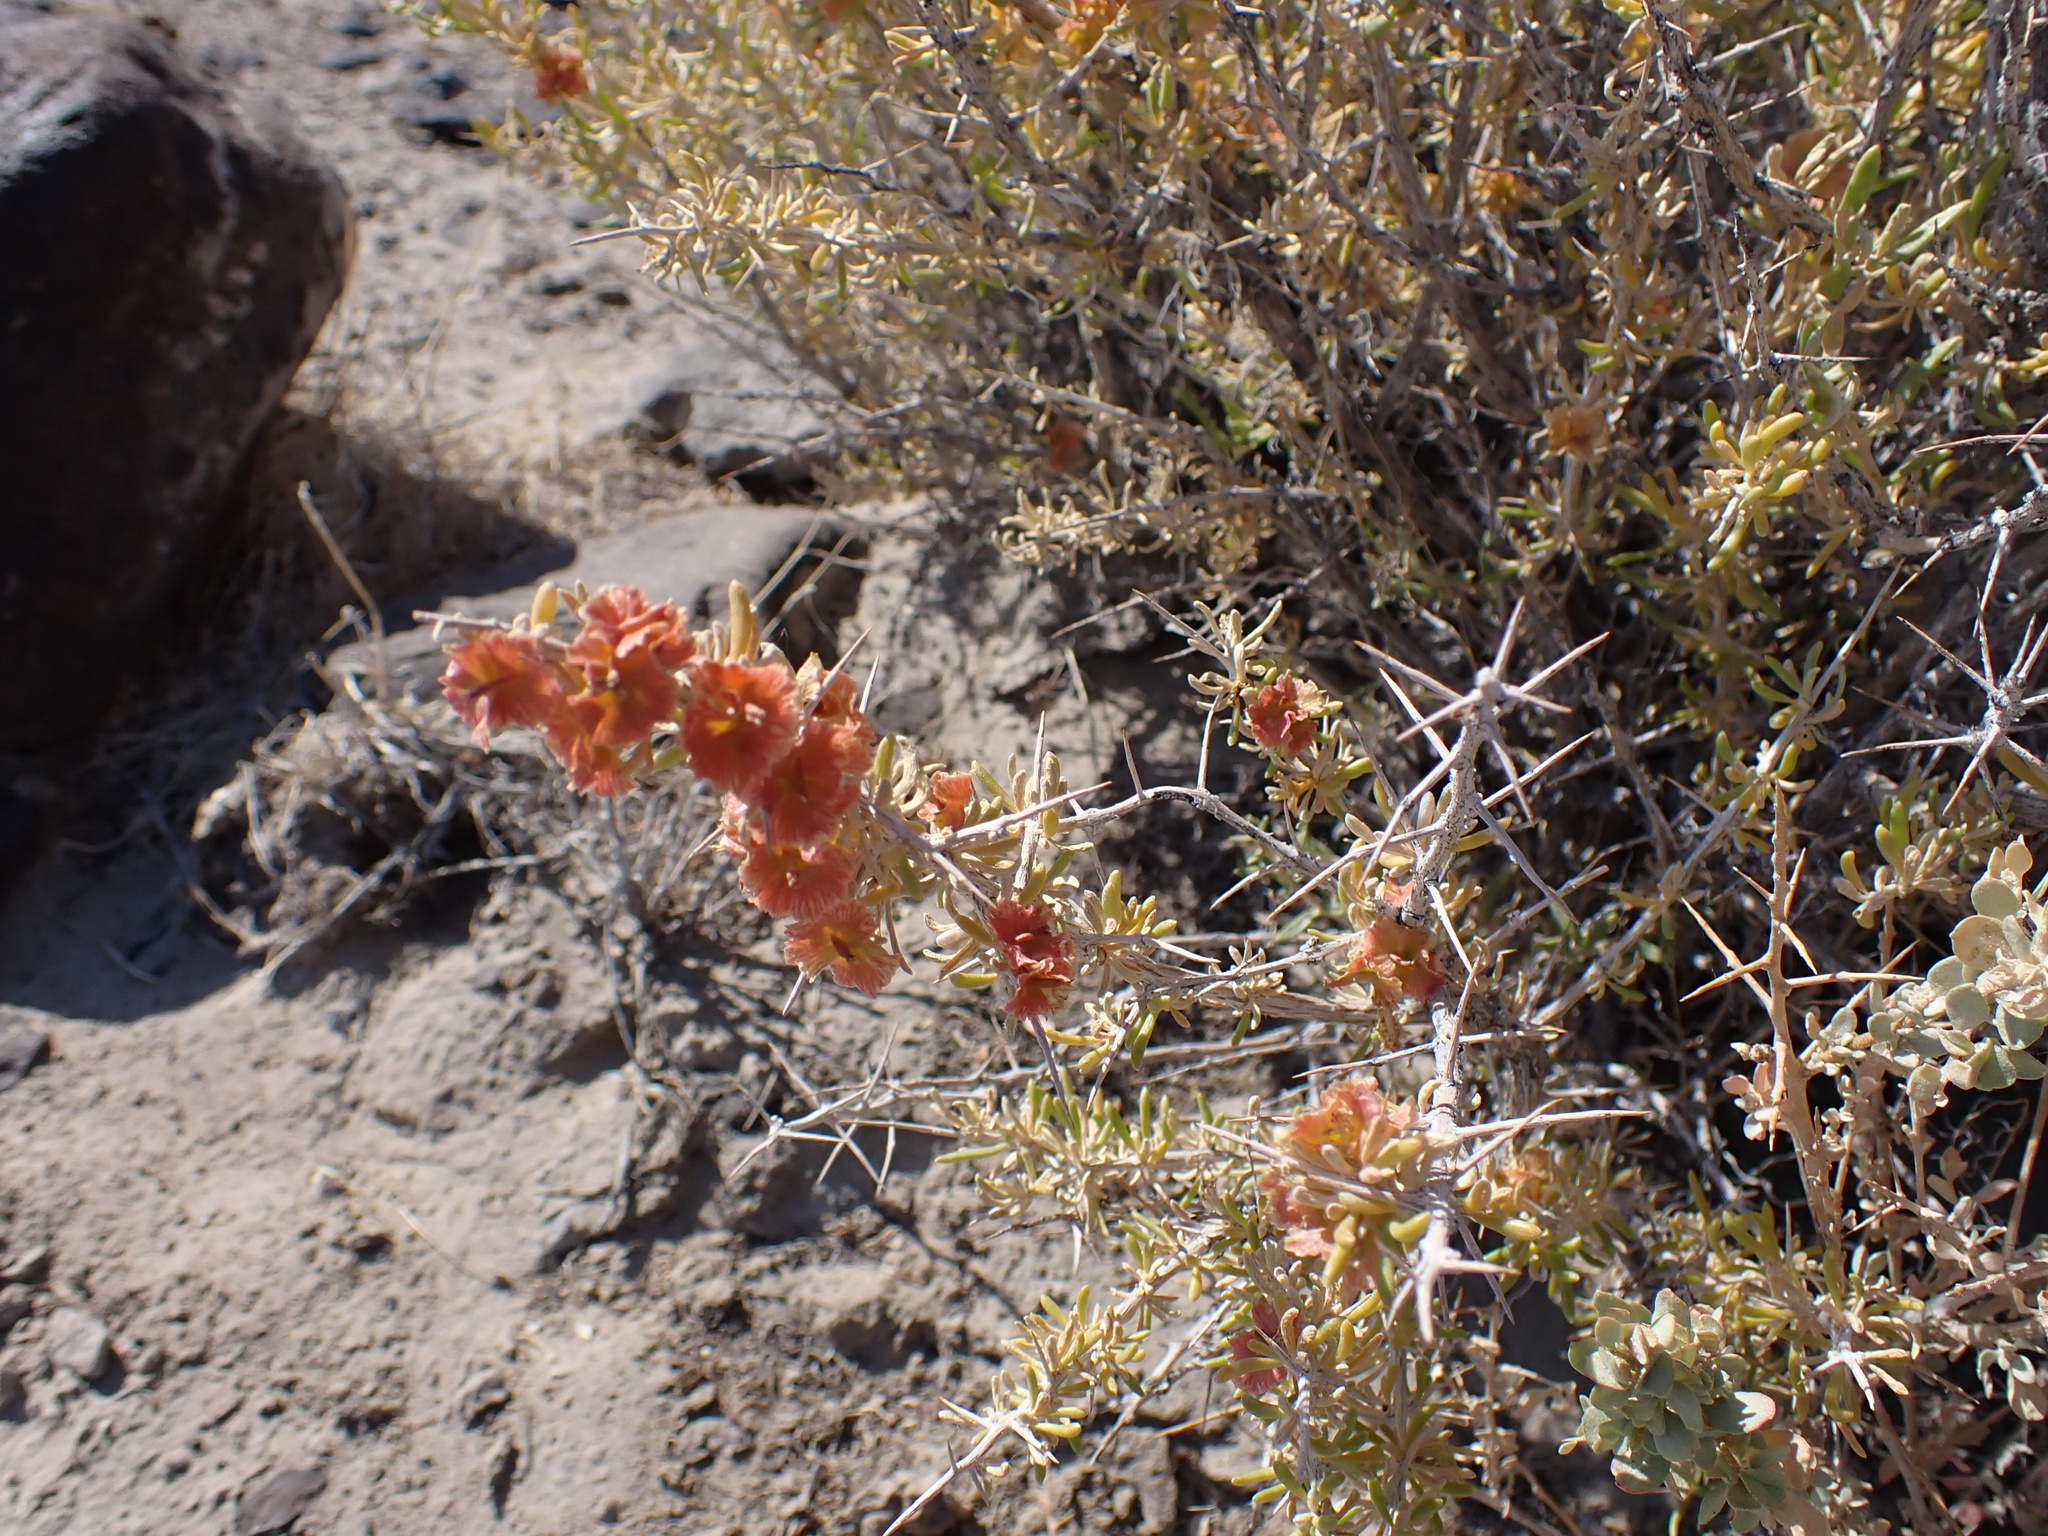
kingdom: Plantae
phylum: Tracheophyta
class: Magnoliopsida
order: Caryophyllales
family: Sarcobataceae
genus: Sarcobatus
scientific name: Sarcobatus baileyi
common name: Bailey greasewood
